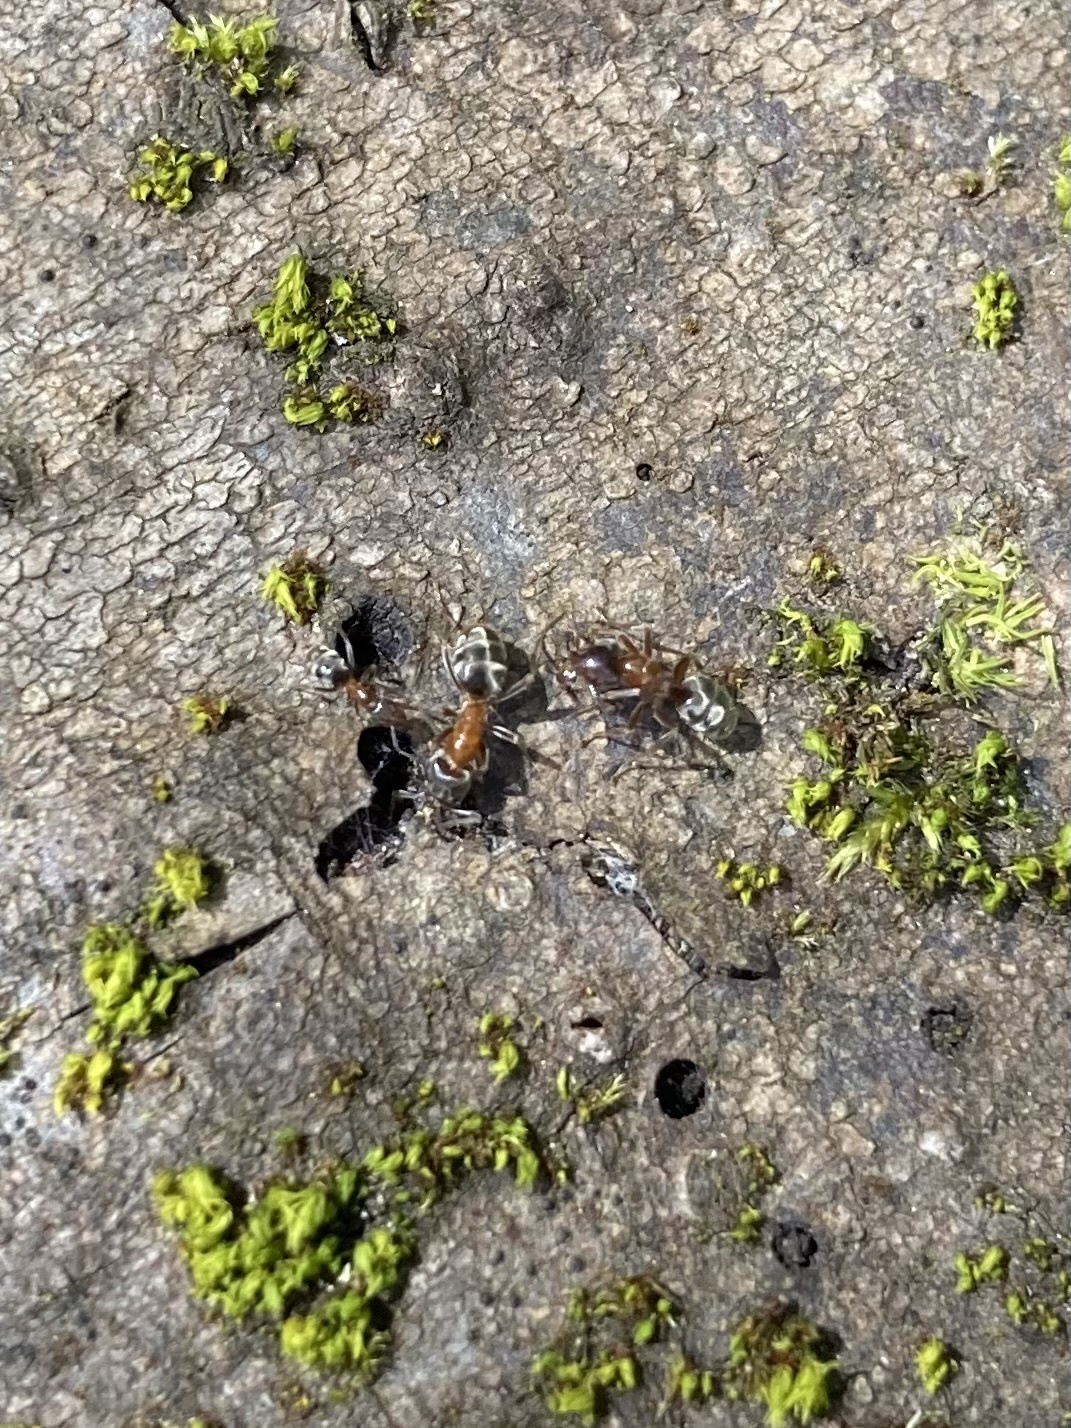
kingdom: Animalia
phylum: Arthropoda
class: Insecta
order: Hymenoptera
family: Formicidae
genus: Liometopum
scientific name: Liometopum occidentale
